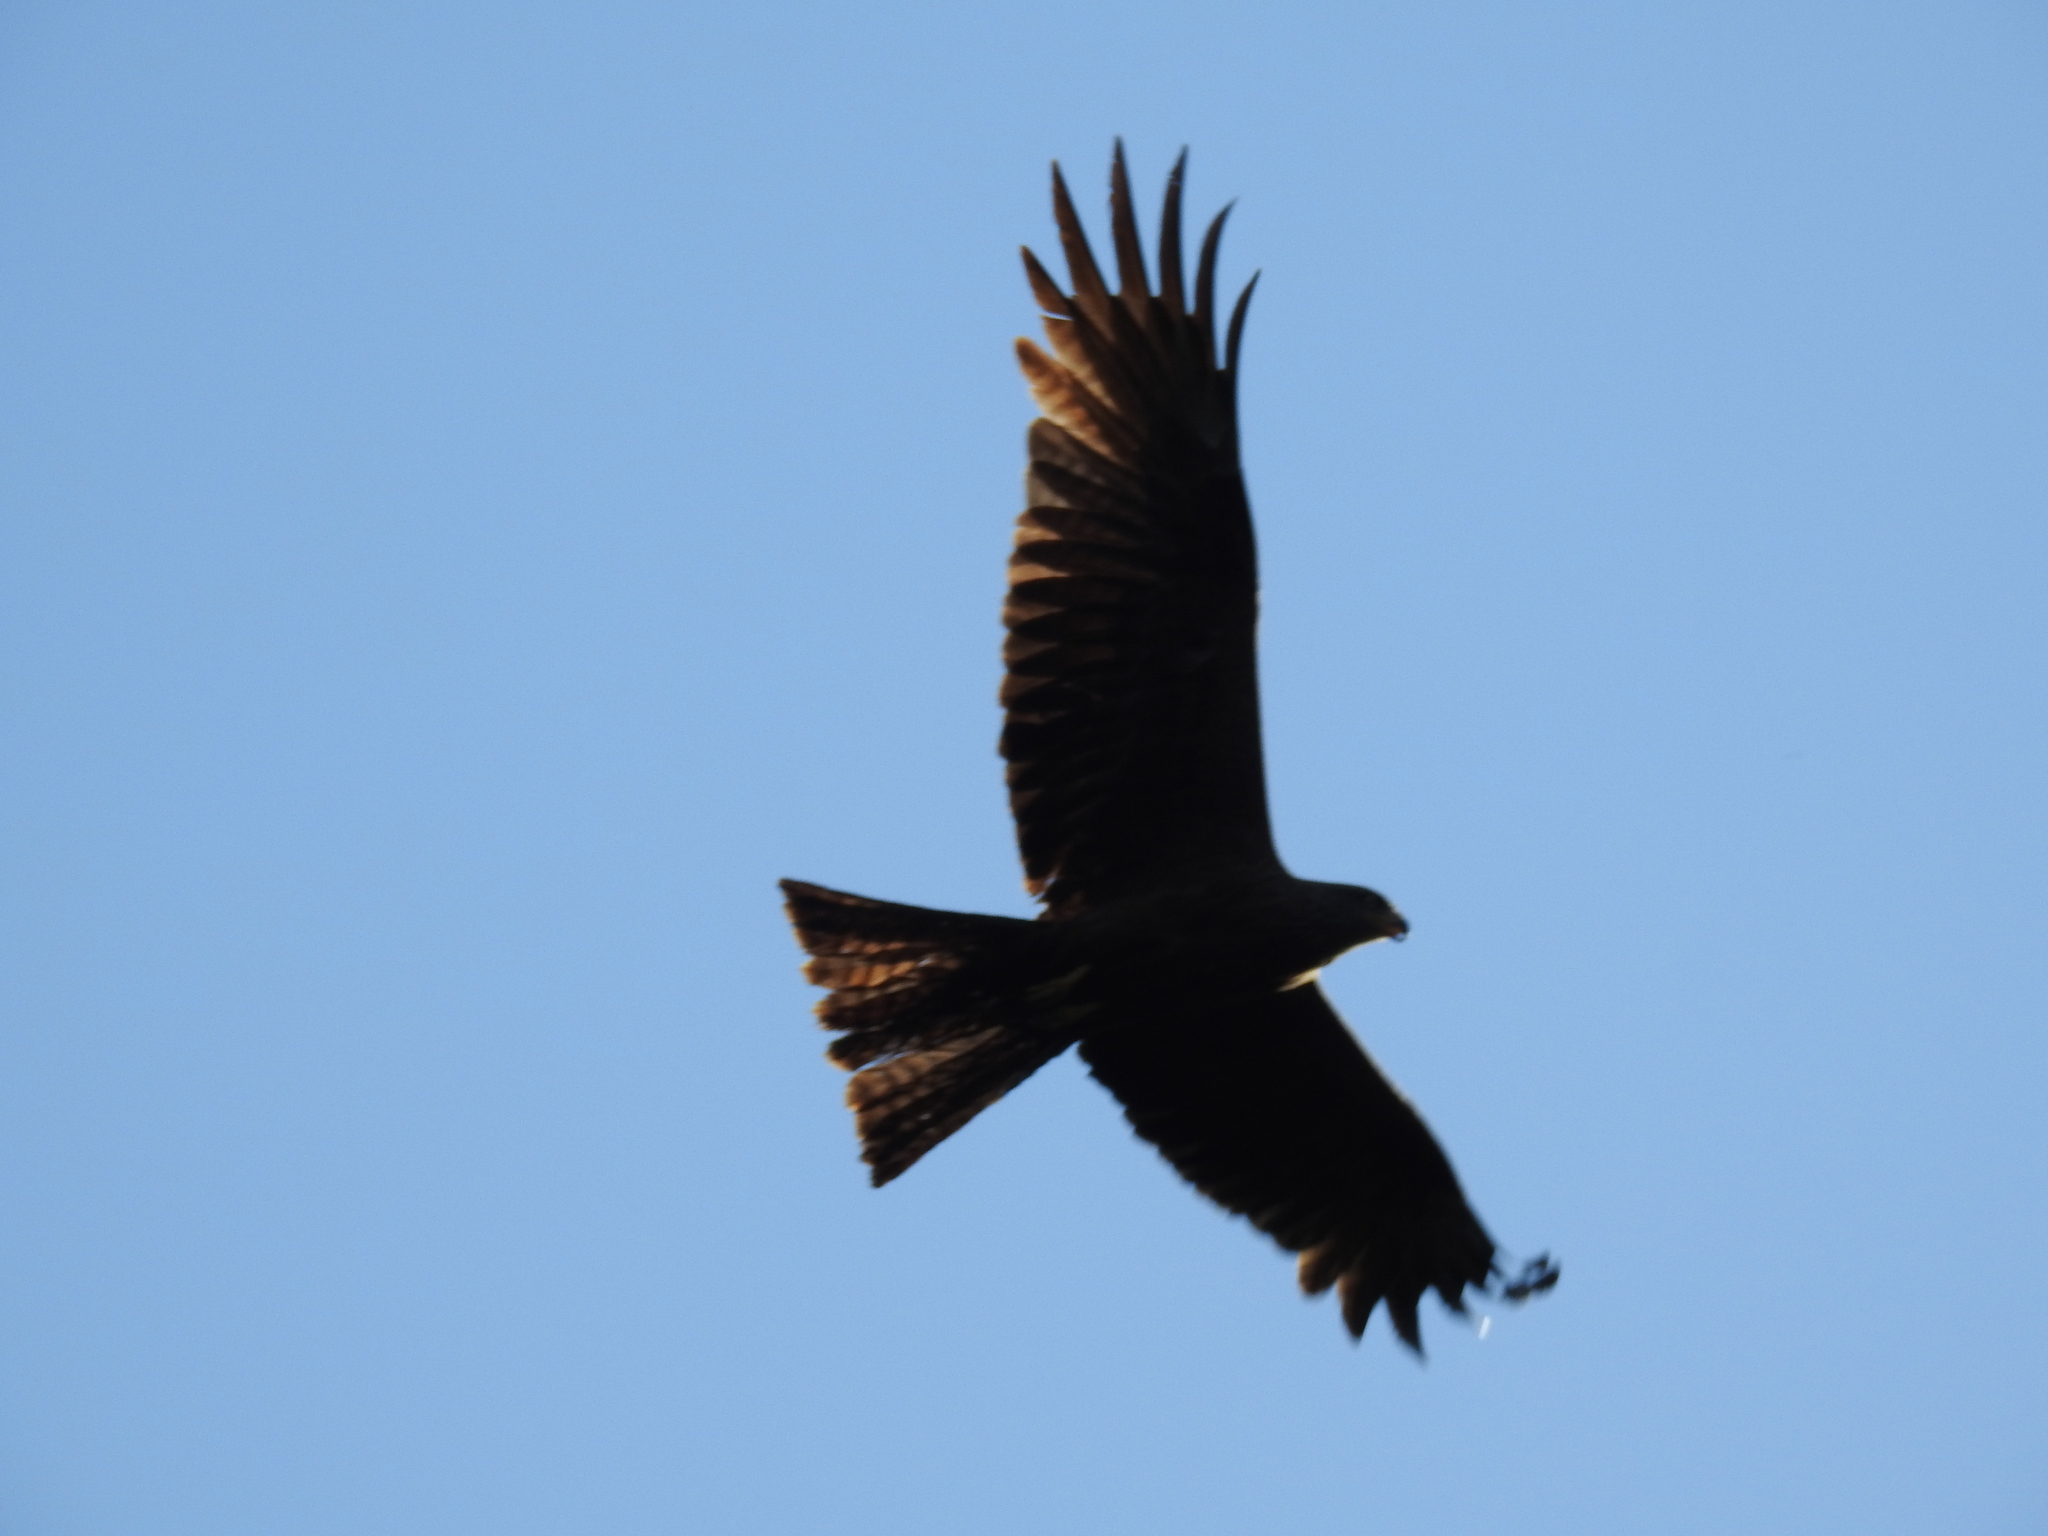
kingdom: Animalia
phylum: Chordata
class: Aves
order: Accipitriformes
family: Accipitridae
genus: Milvus
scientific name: Milvus migrans
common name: Black kite
